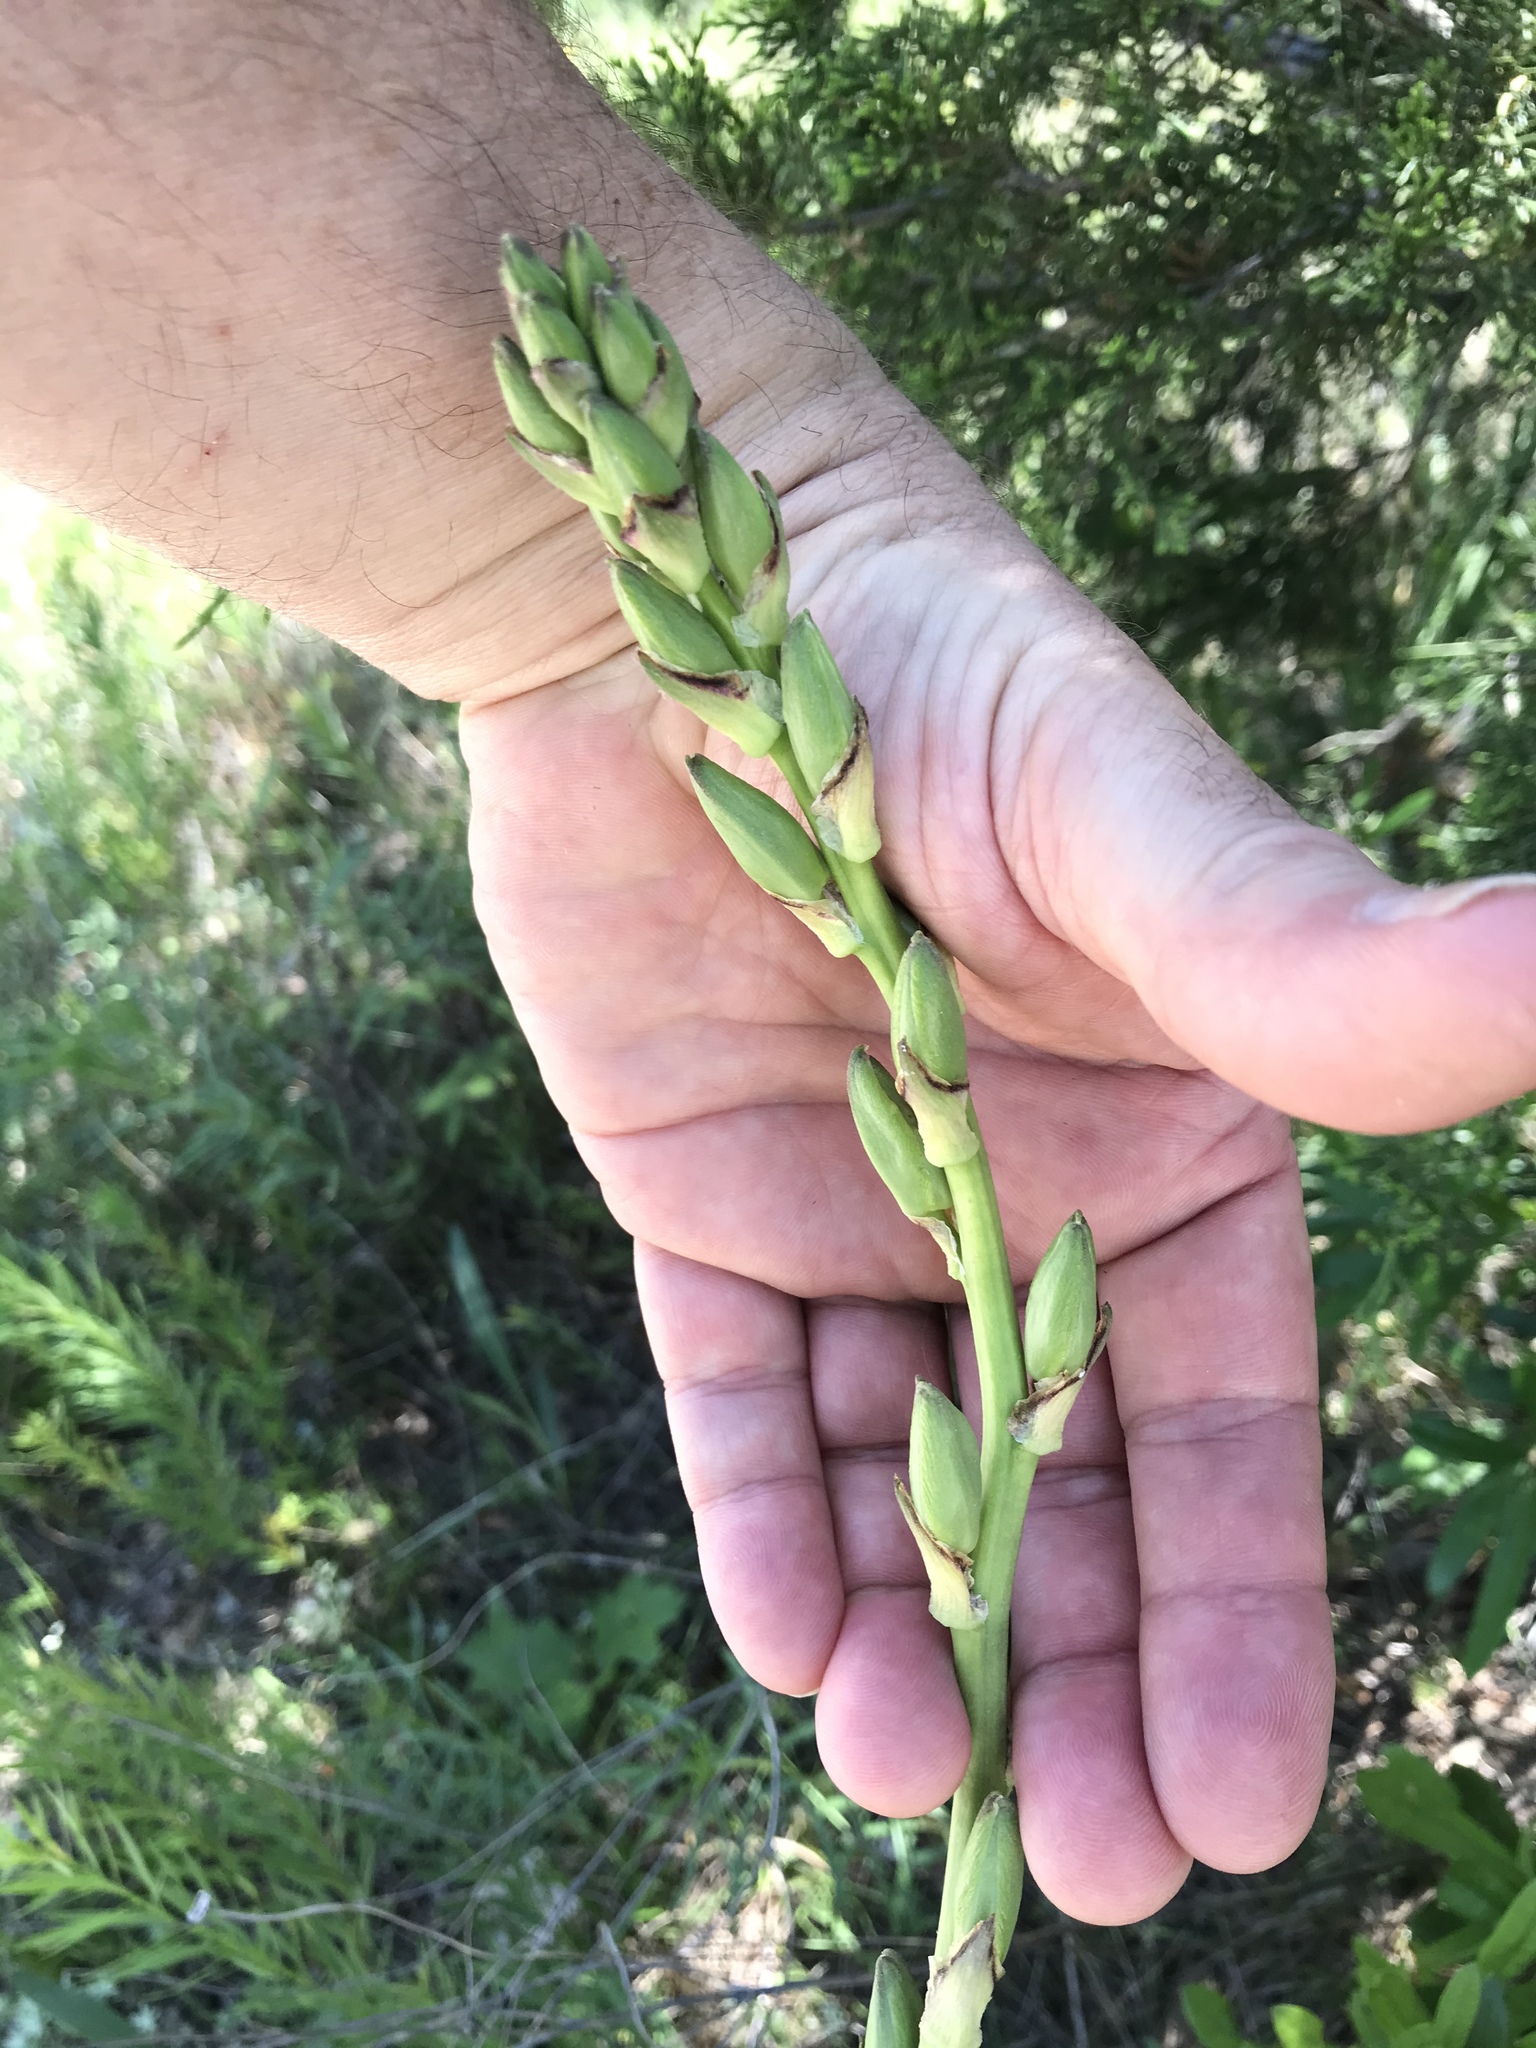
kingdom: Plantae
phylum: Tracheophyta
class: Liliopsida
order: Asparagales
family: Asparagaceae
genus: Yucca
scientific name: Yucca arkansana
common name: Arkansas yucca
